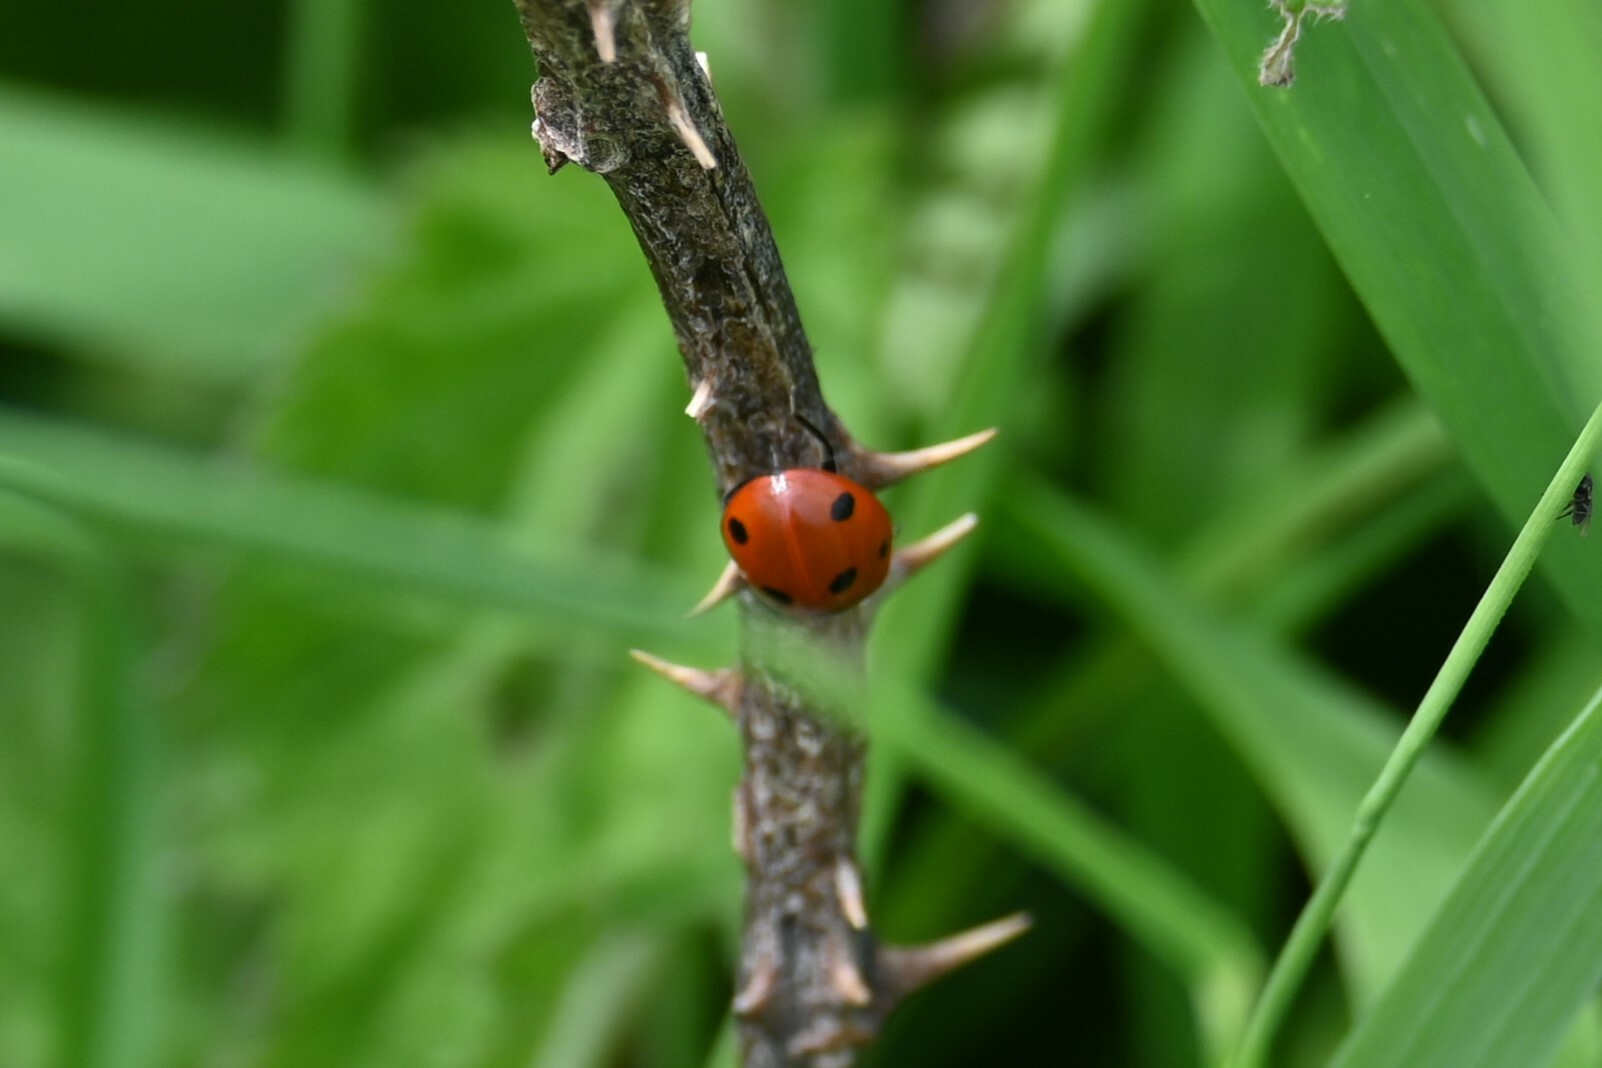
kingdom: Animalia
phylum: Arthropoda
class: Insecta
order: Coleoptera
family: Coccinellidae
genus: Coccinella
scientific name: Coccinella septempunctata
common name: Sevenspotted lady beetle
